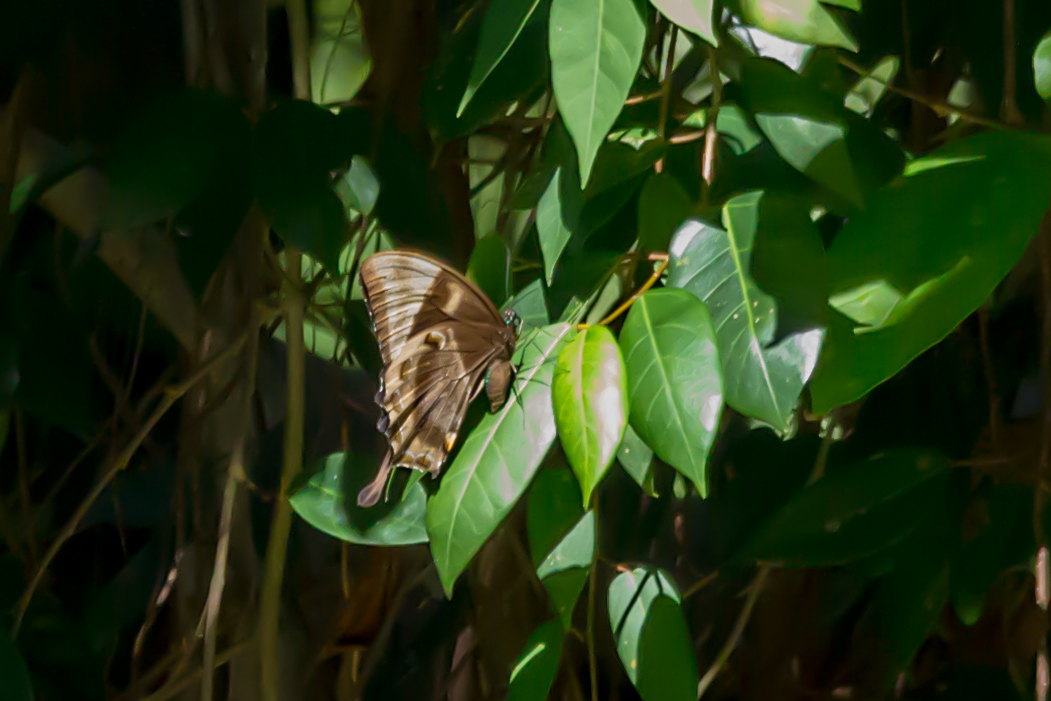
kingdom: Animalia
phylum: Arthropoda
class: Insecta
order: Lepidoptera
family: Papilionidae
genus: Papilio
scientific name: Papilio ulysses
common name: Blue emperor
